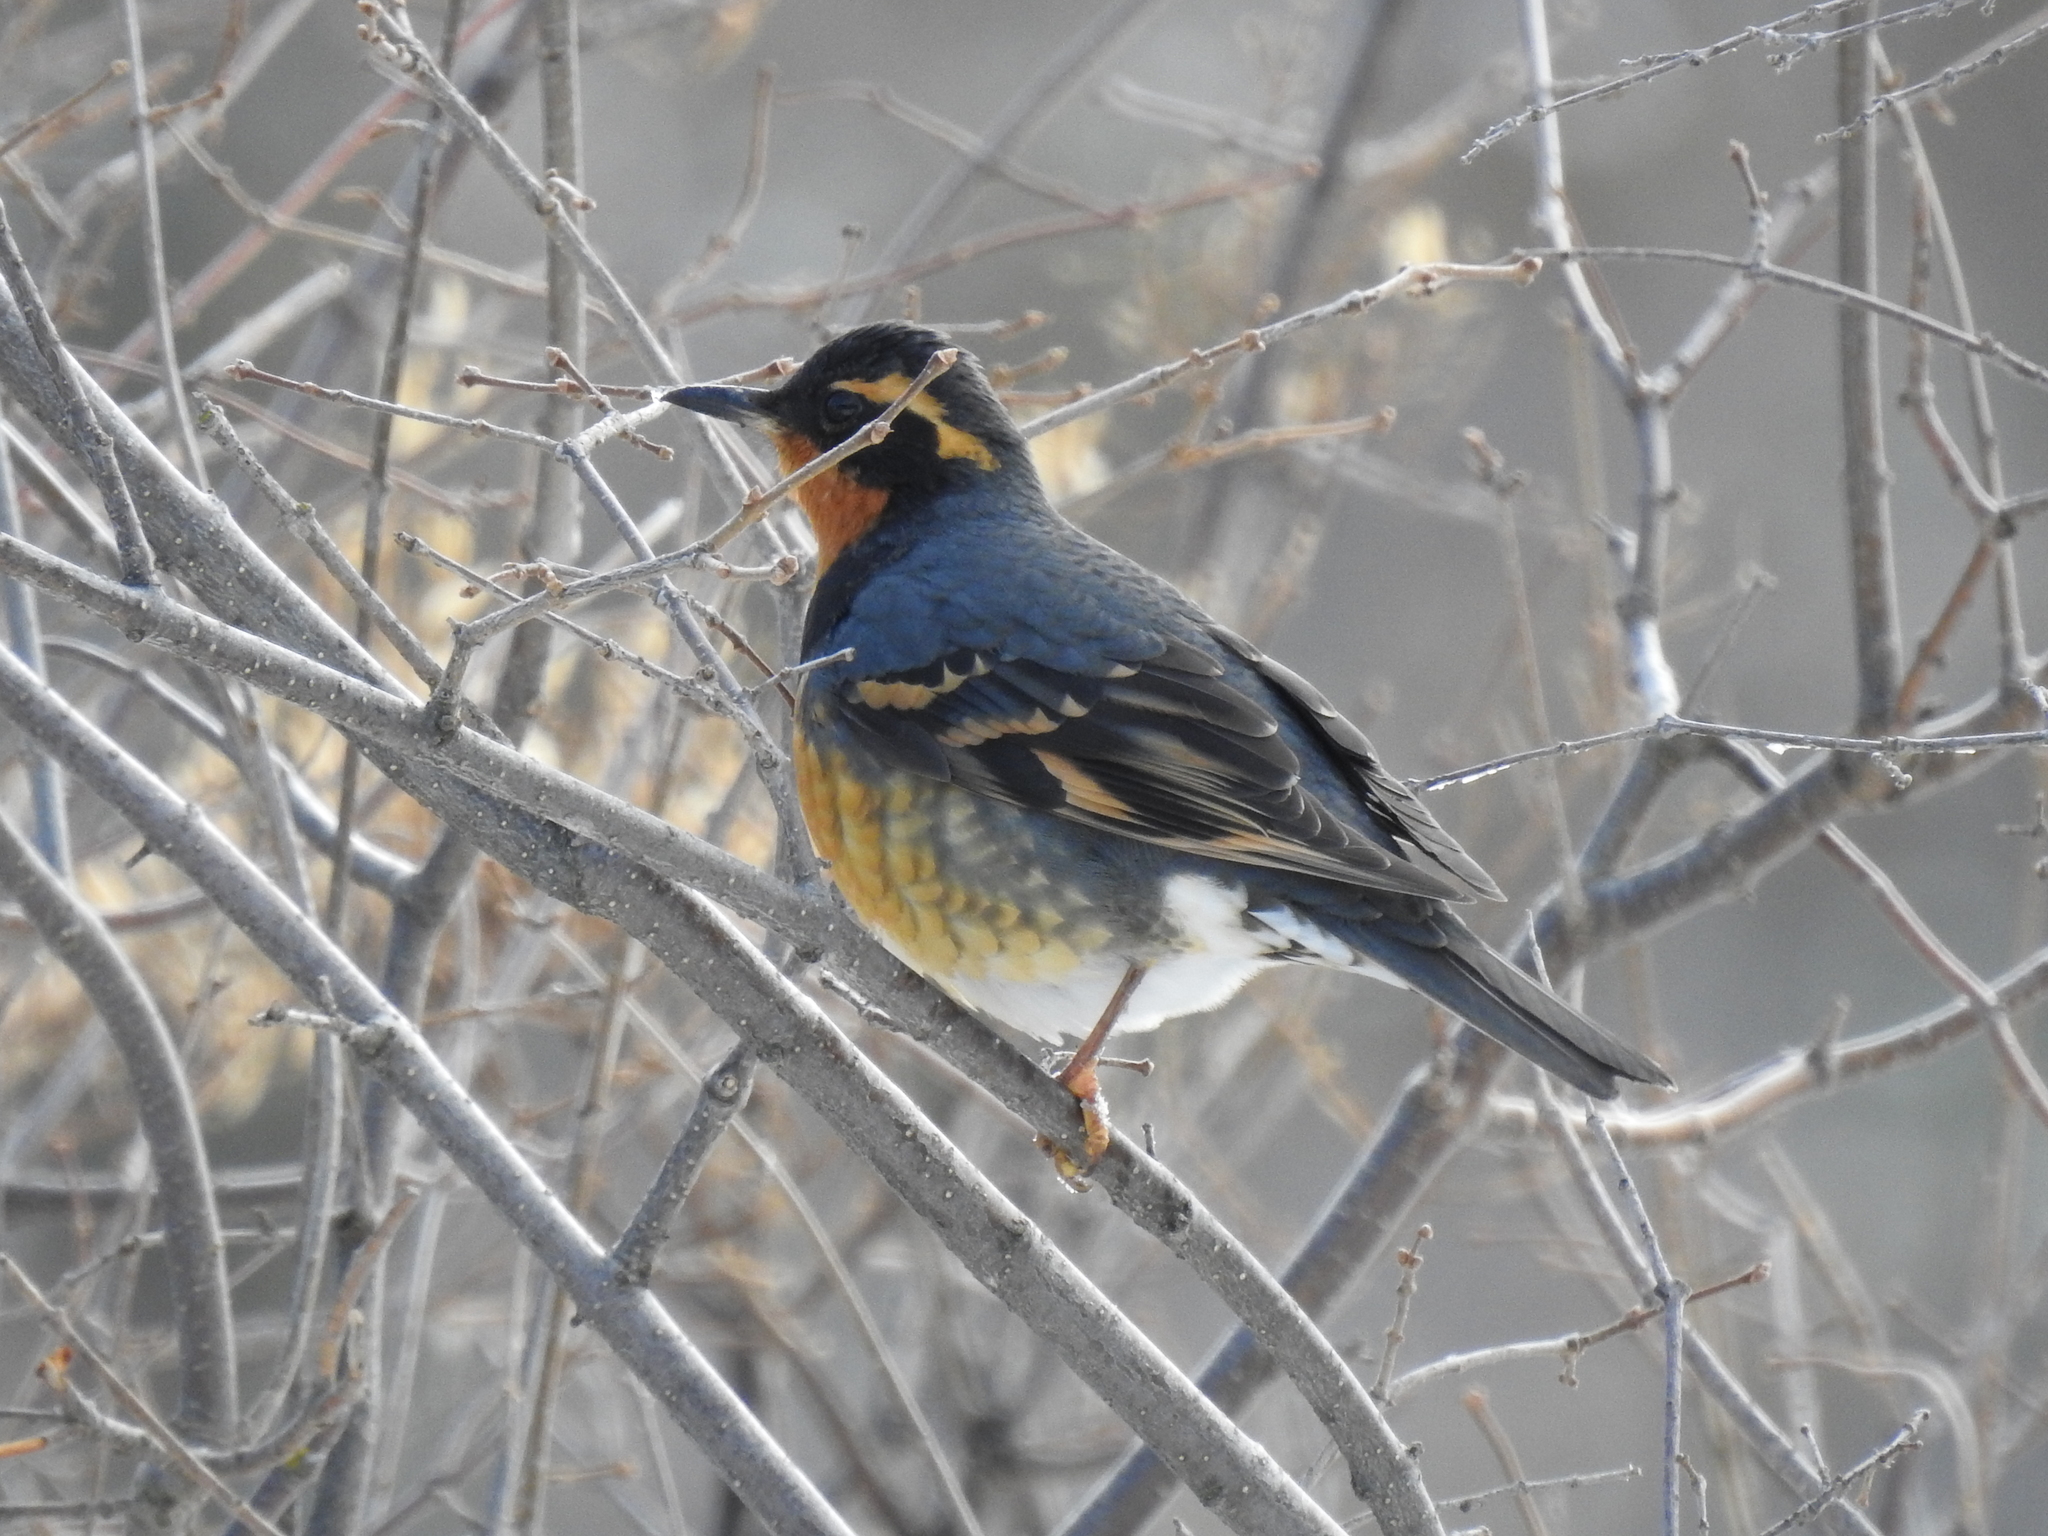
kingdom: Animalia
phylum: Chordata
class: Aves
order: Passeriformes
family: Turdidae
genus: Ixoreus
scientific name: Ixoreus naevius
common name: Varied thrush
